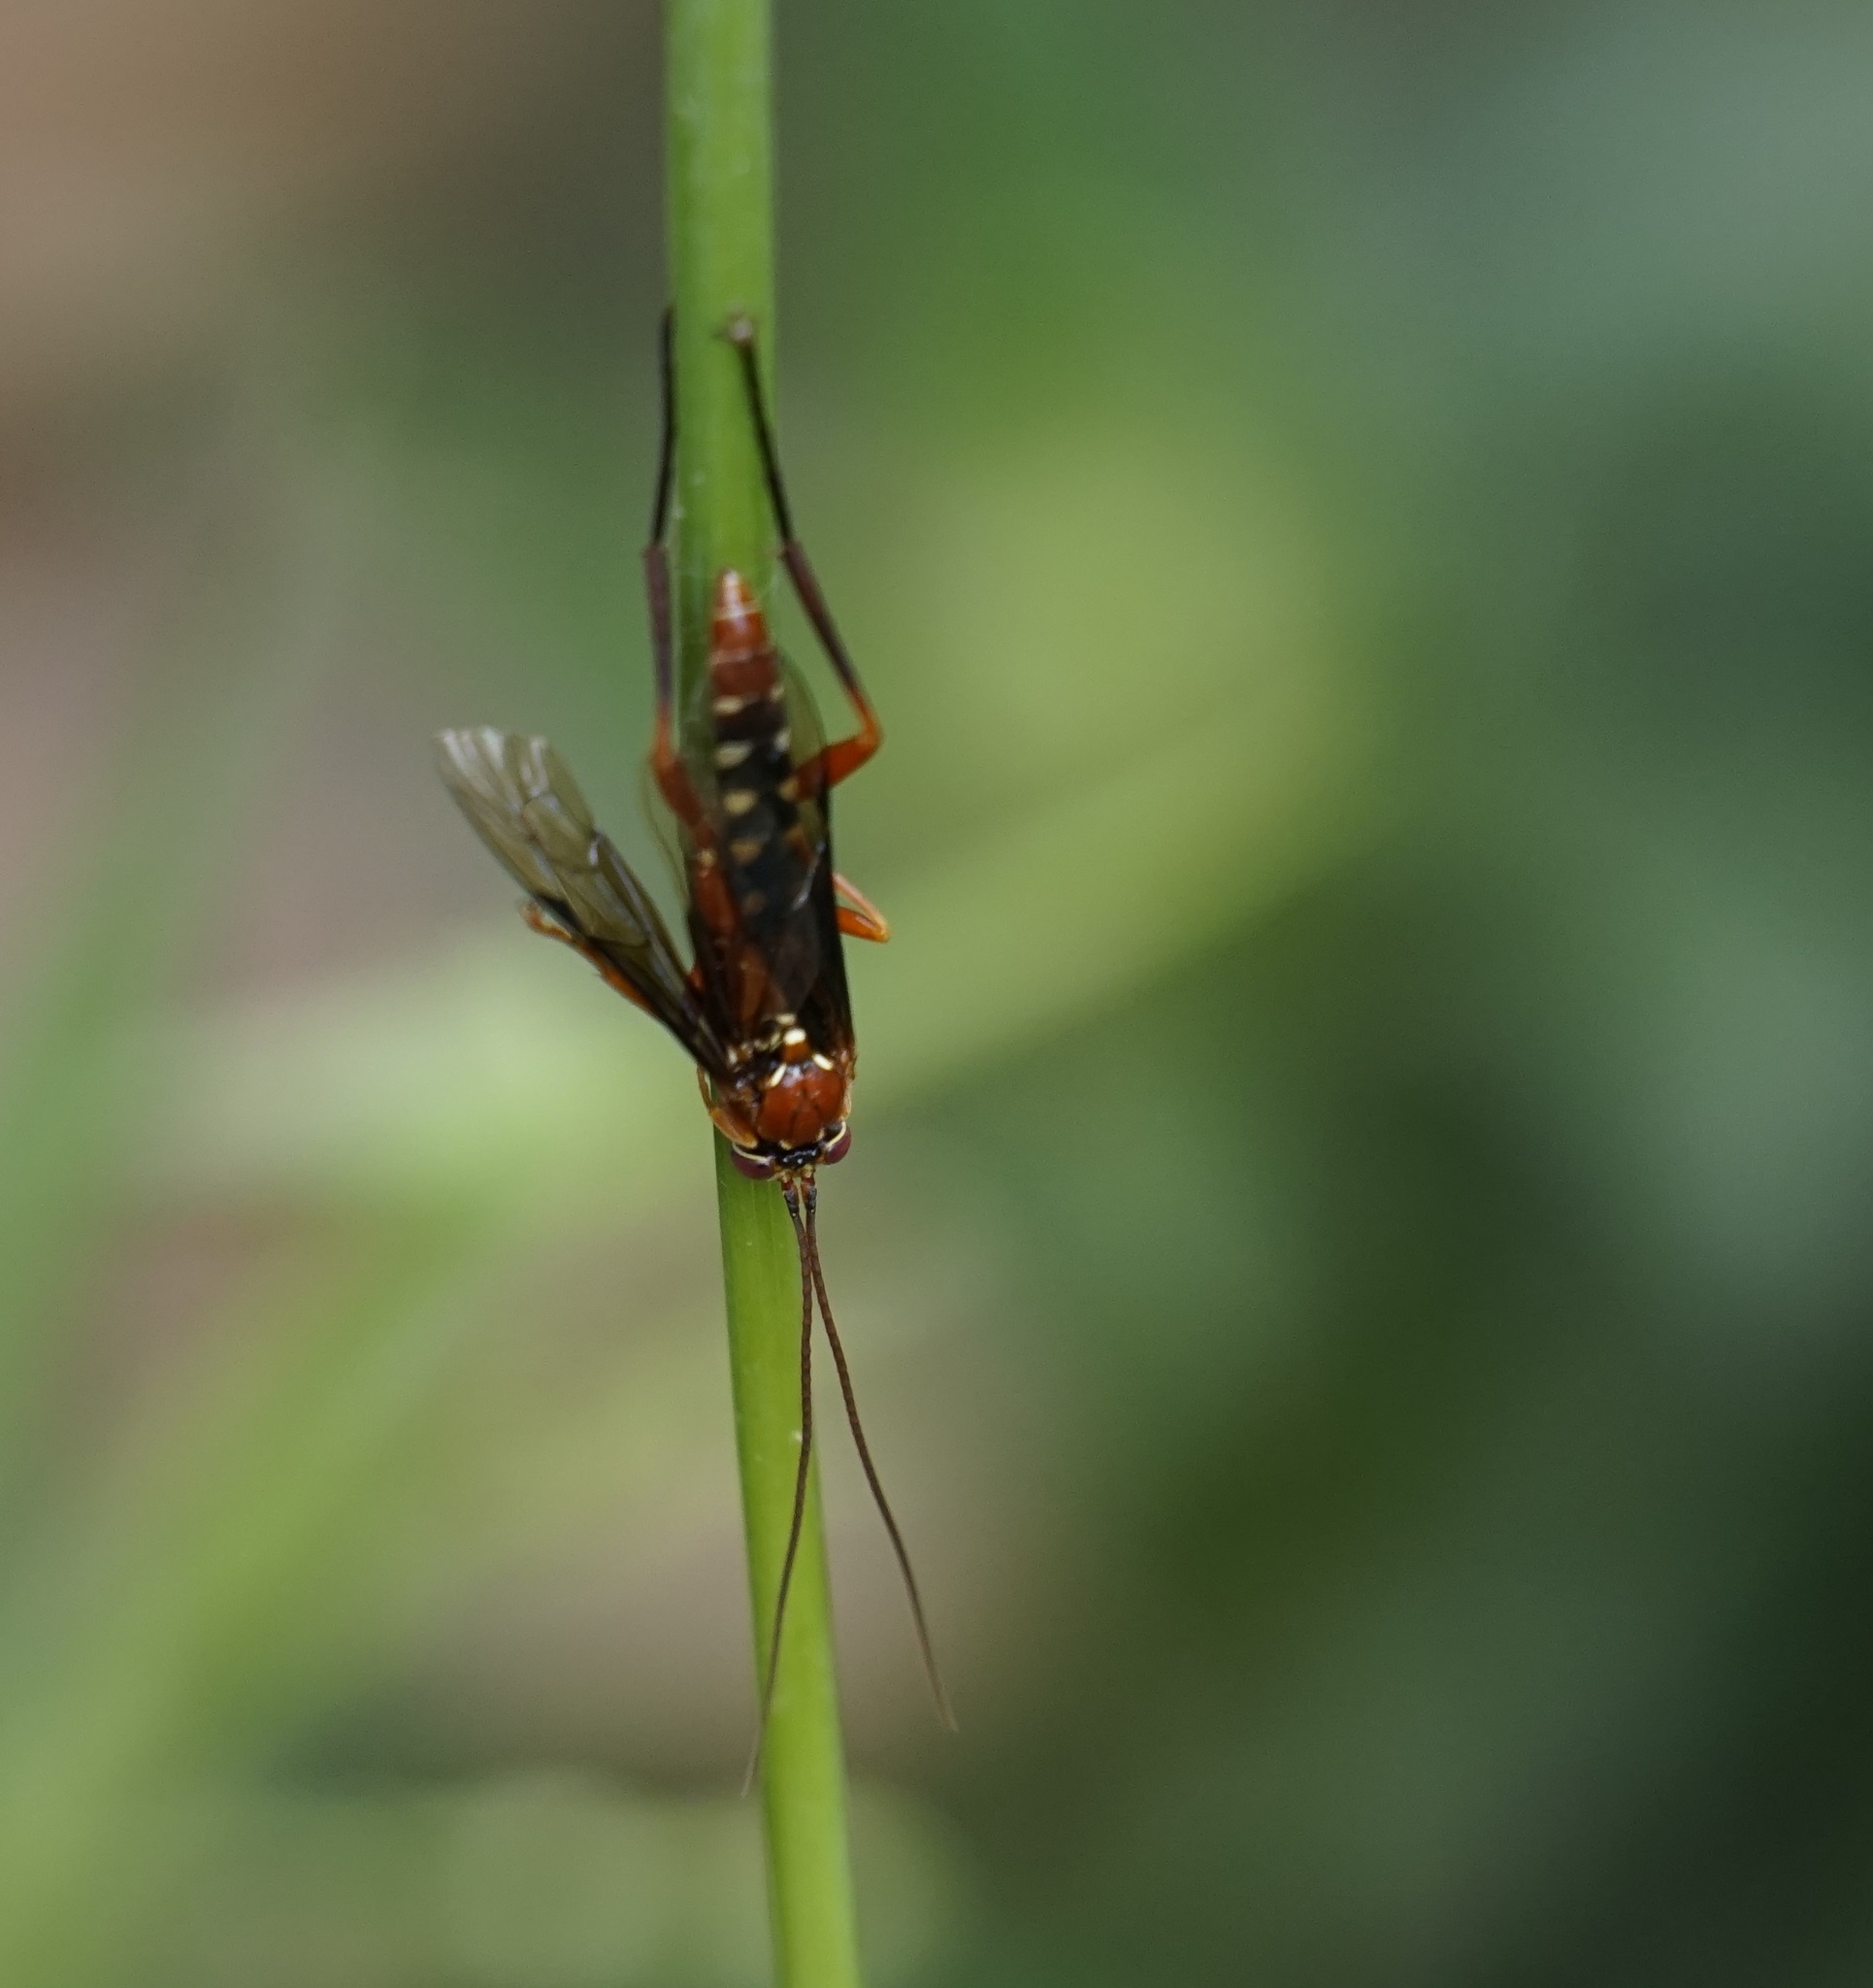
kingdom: Animalia
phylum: Arthropoda
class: Insecta
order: Hymenoptera
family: Ichneumonidae
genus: Lissopimpla
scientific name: Lissopimpla excelsa
